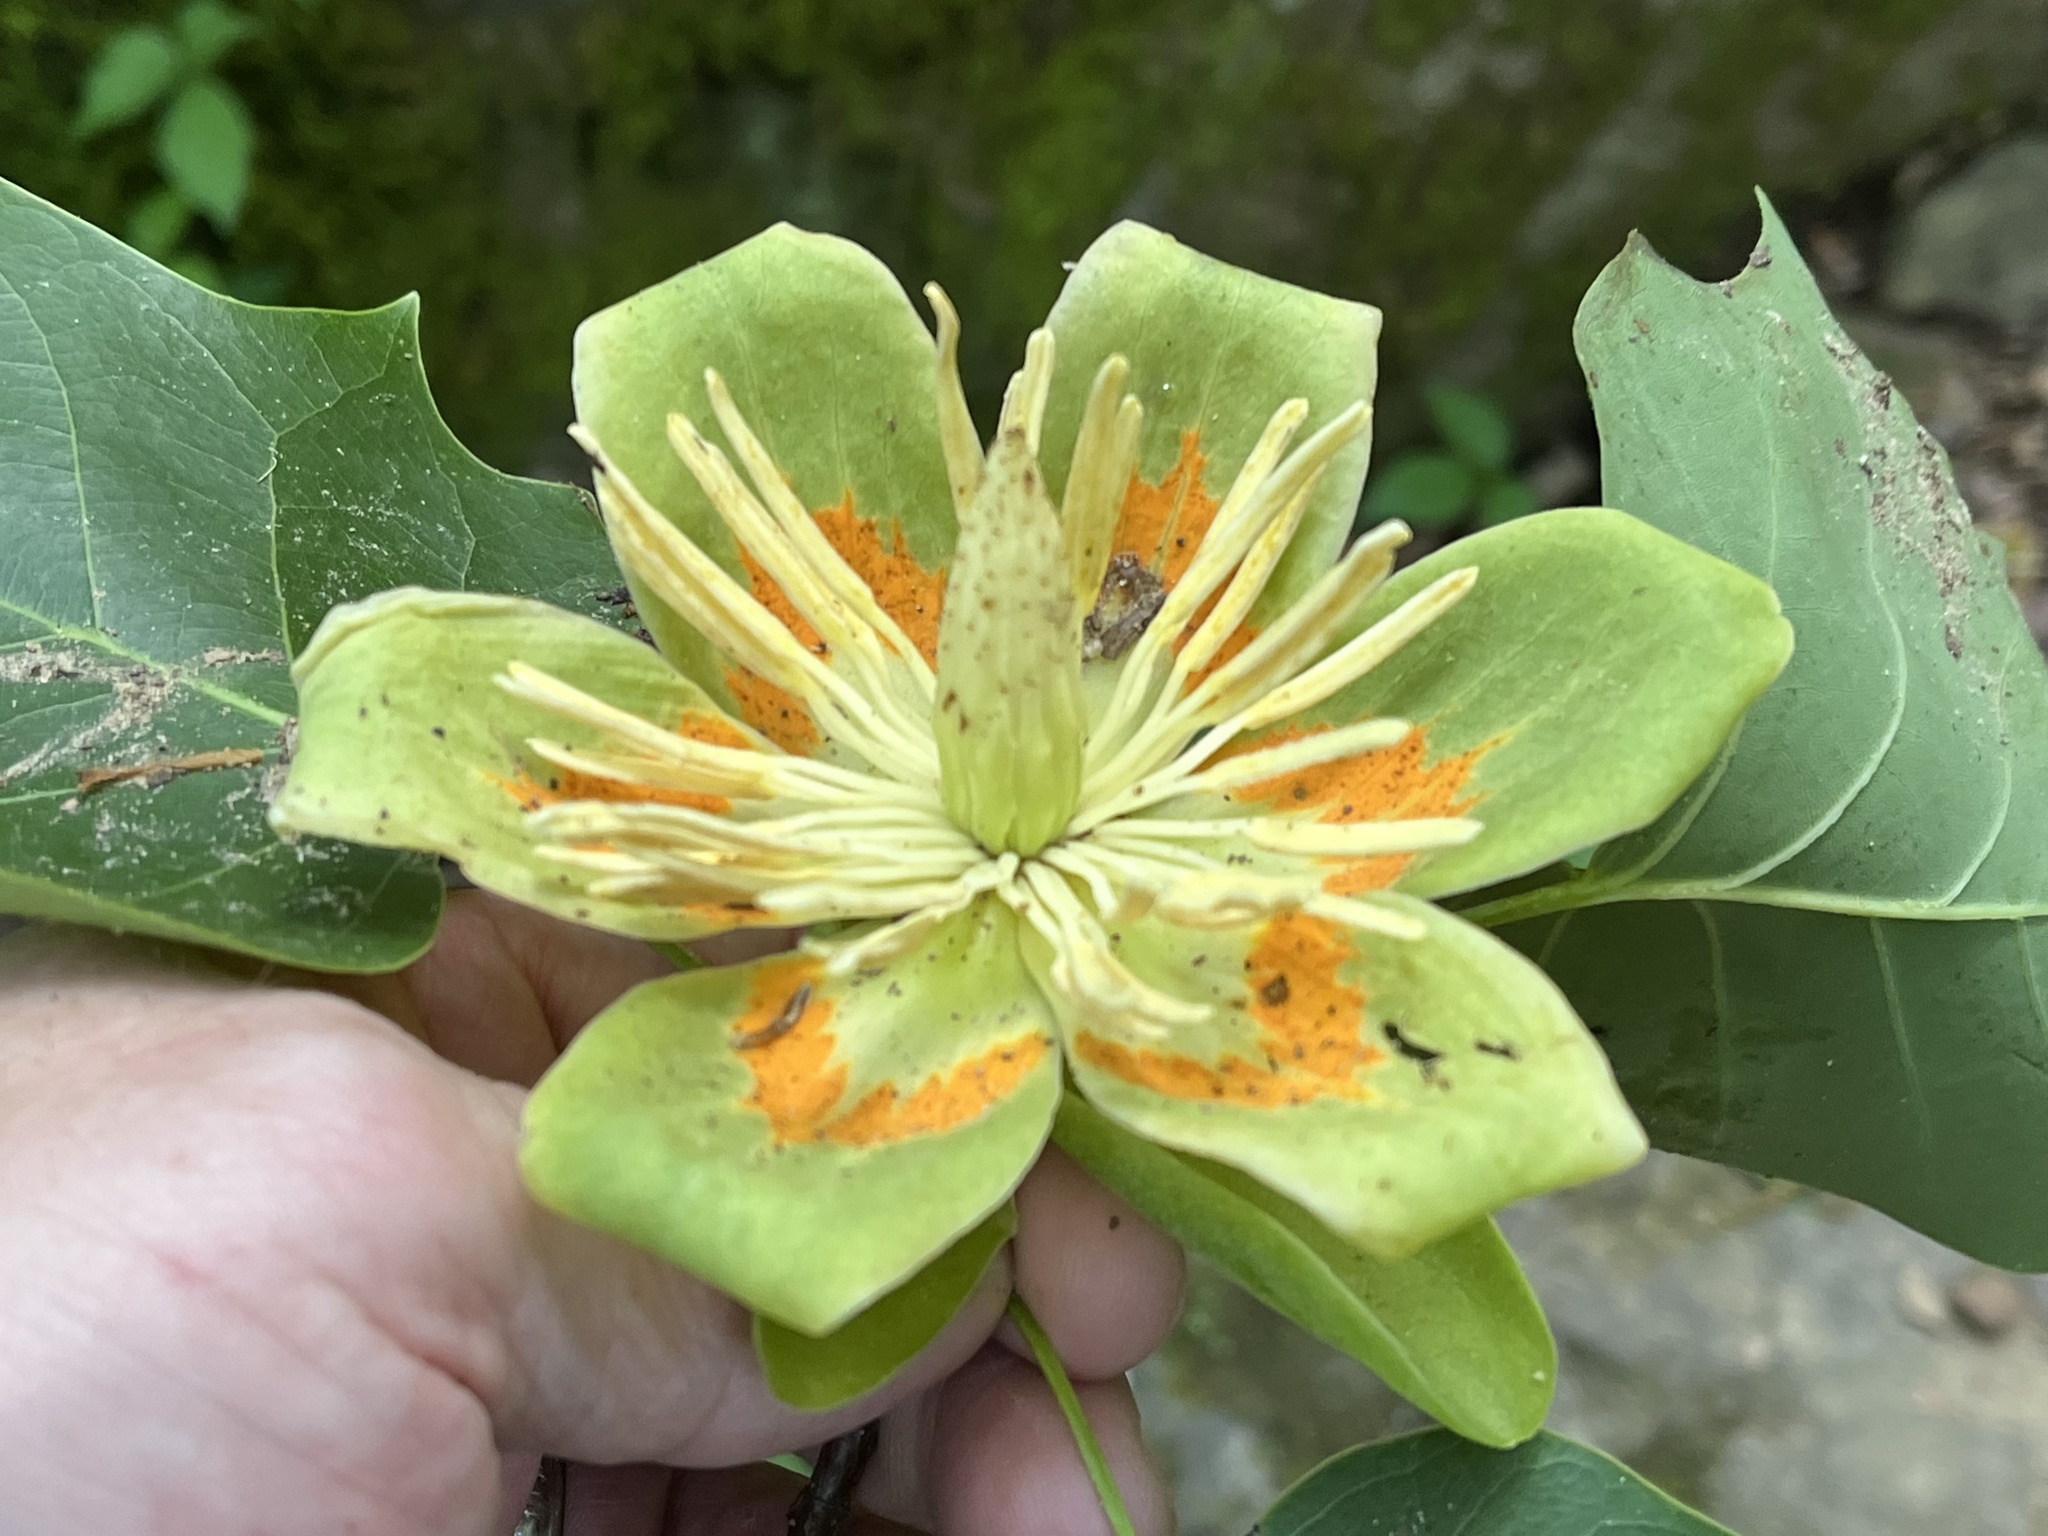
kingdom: Plantae
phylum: Tracheophyta
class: Magnoliopsida
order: Magnoliales
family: Magnoliaceae
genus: Liriodendron
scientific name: Liriodendron tulipifera
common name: Tulip tree
